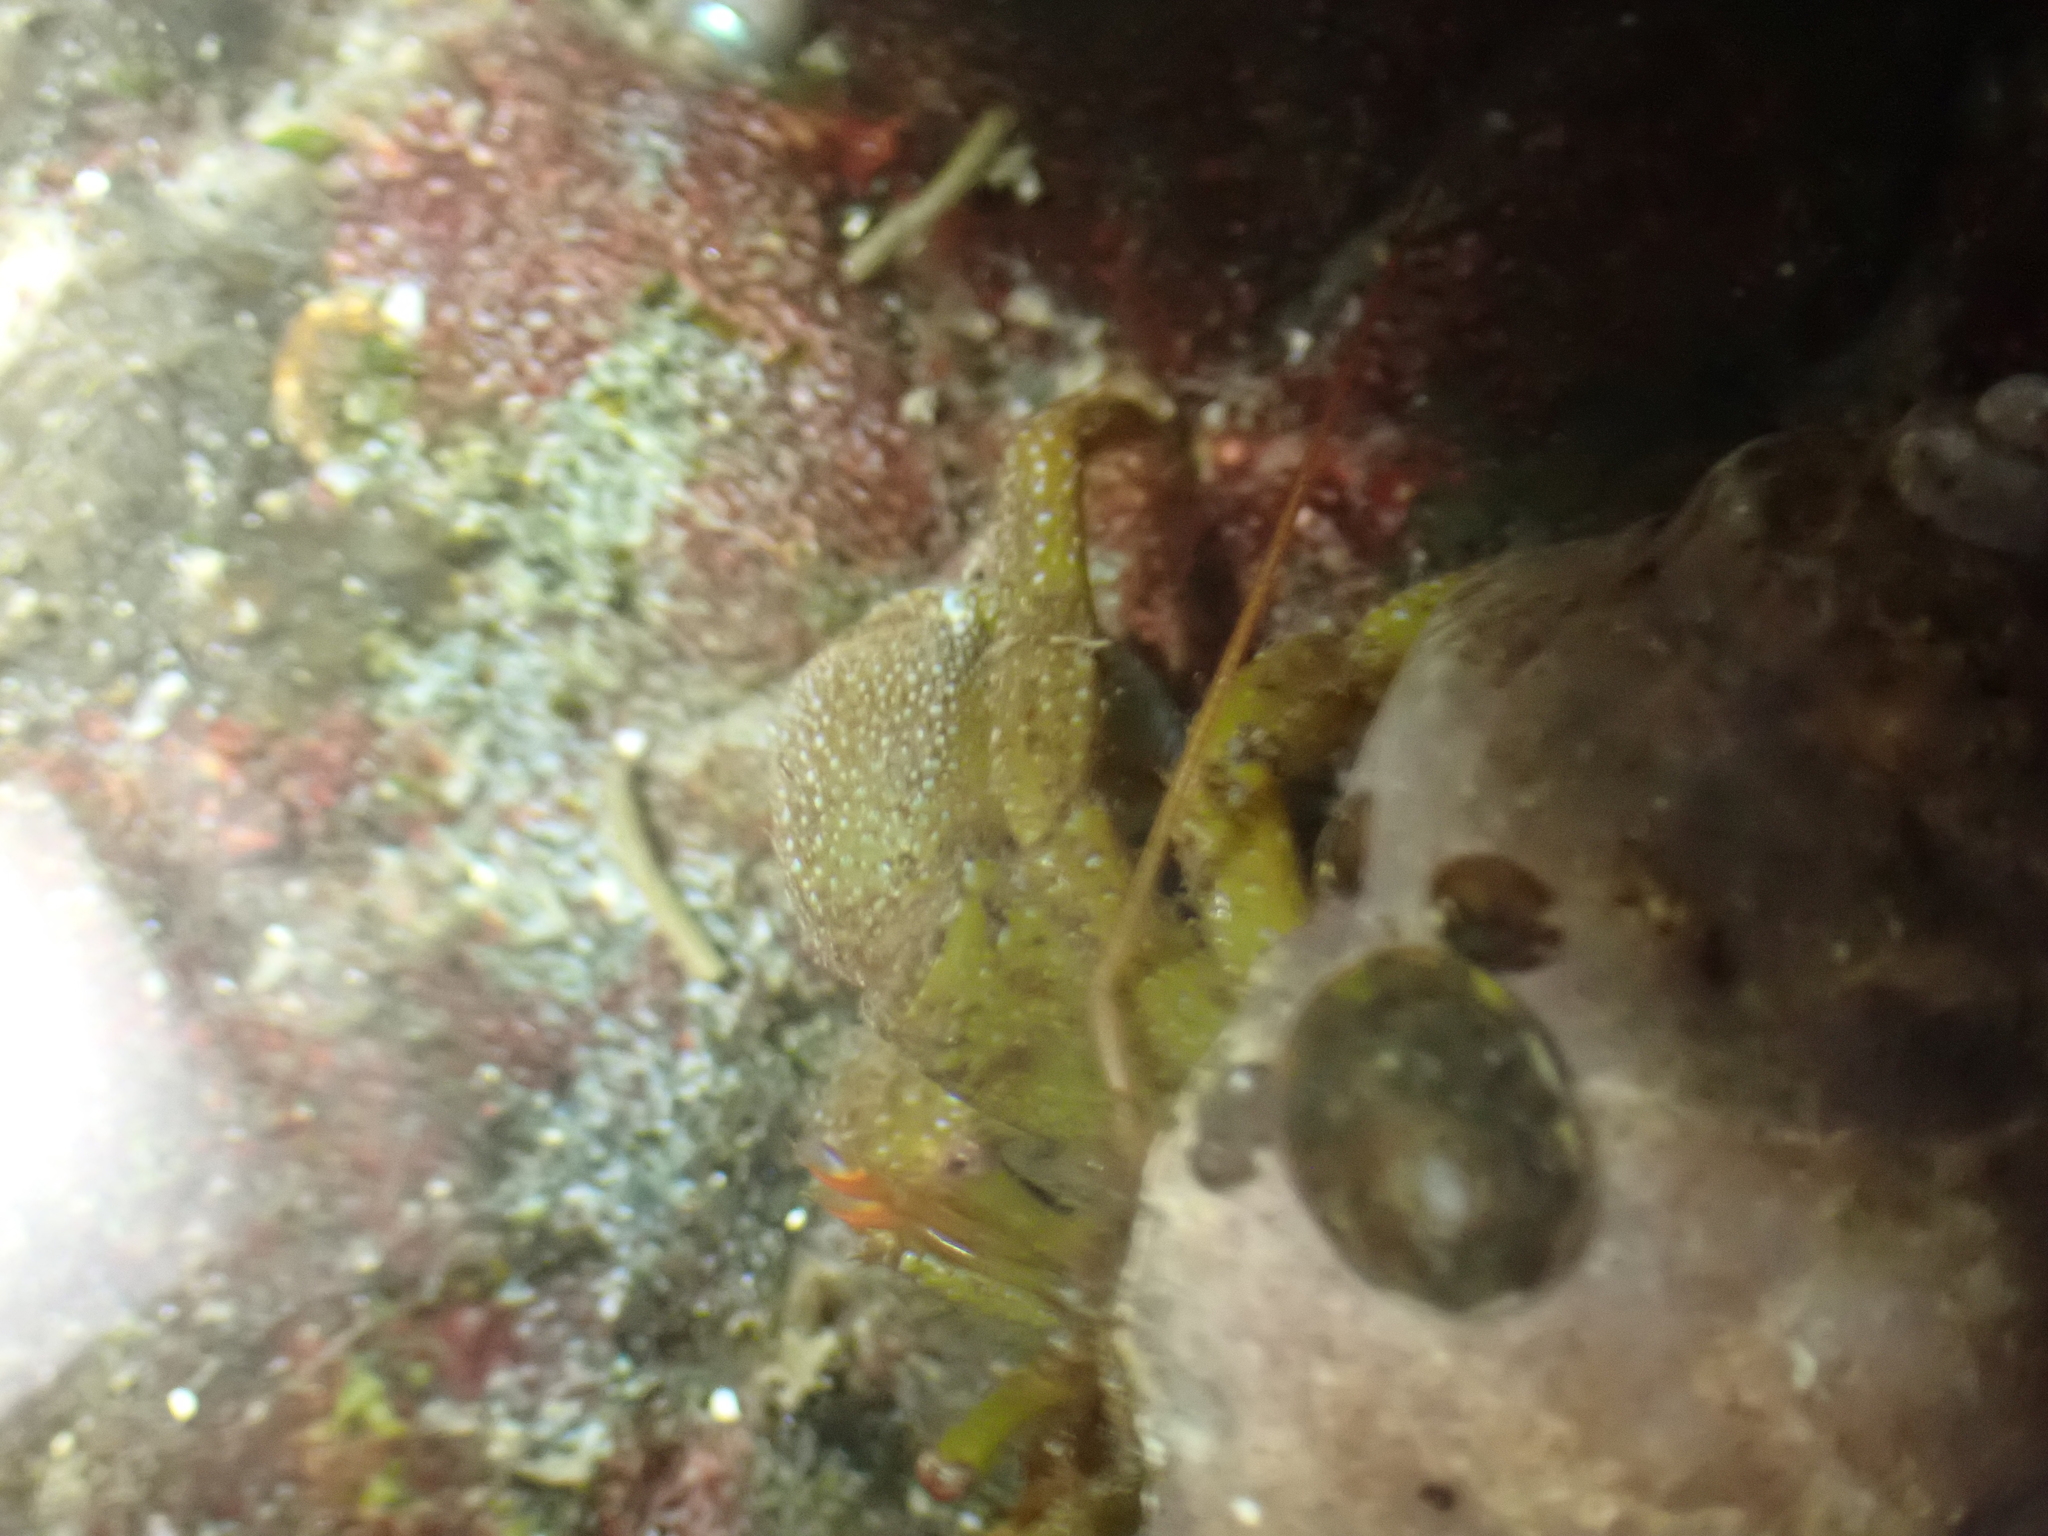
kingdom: Animalia
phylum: Arthropoda
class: Malacostraca
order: Decapoda
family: Paguridae
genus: Pagurus
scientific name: Pagurus granosimanus
